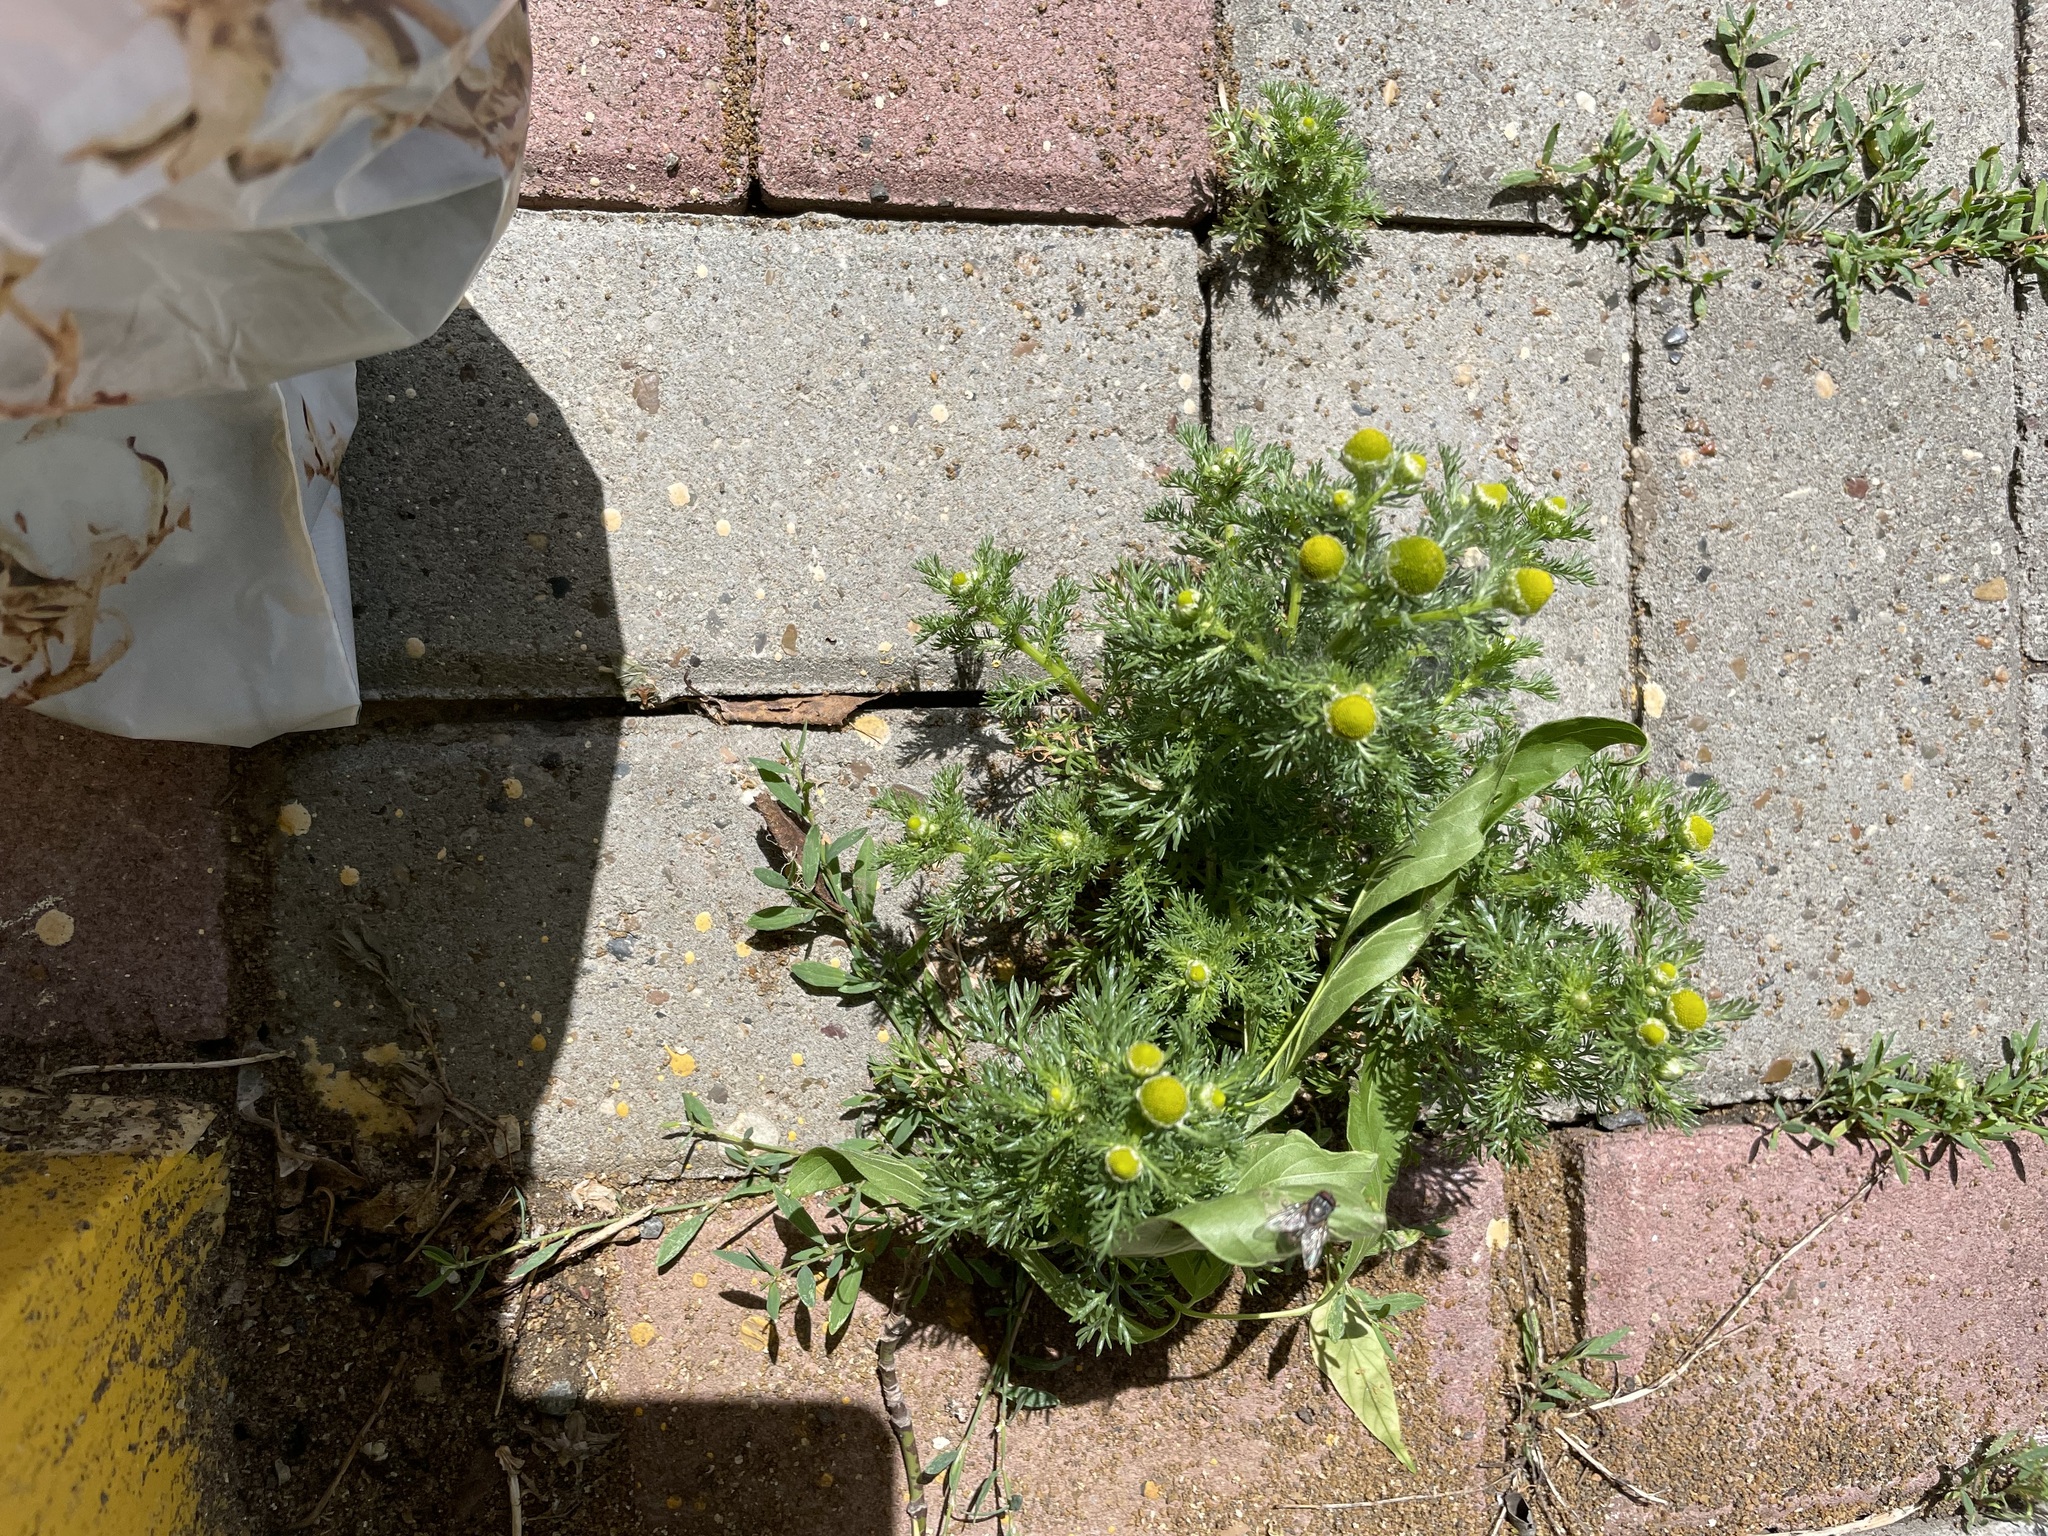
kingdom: Plantae
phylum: Tracheophyta
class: Magnoliopsida
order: Asterales
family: Asteraceae
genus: Matricaria
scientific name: Matricaria discoidea
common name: Disc mayweed
